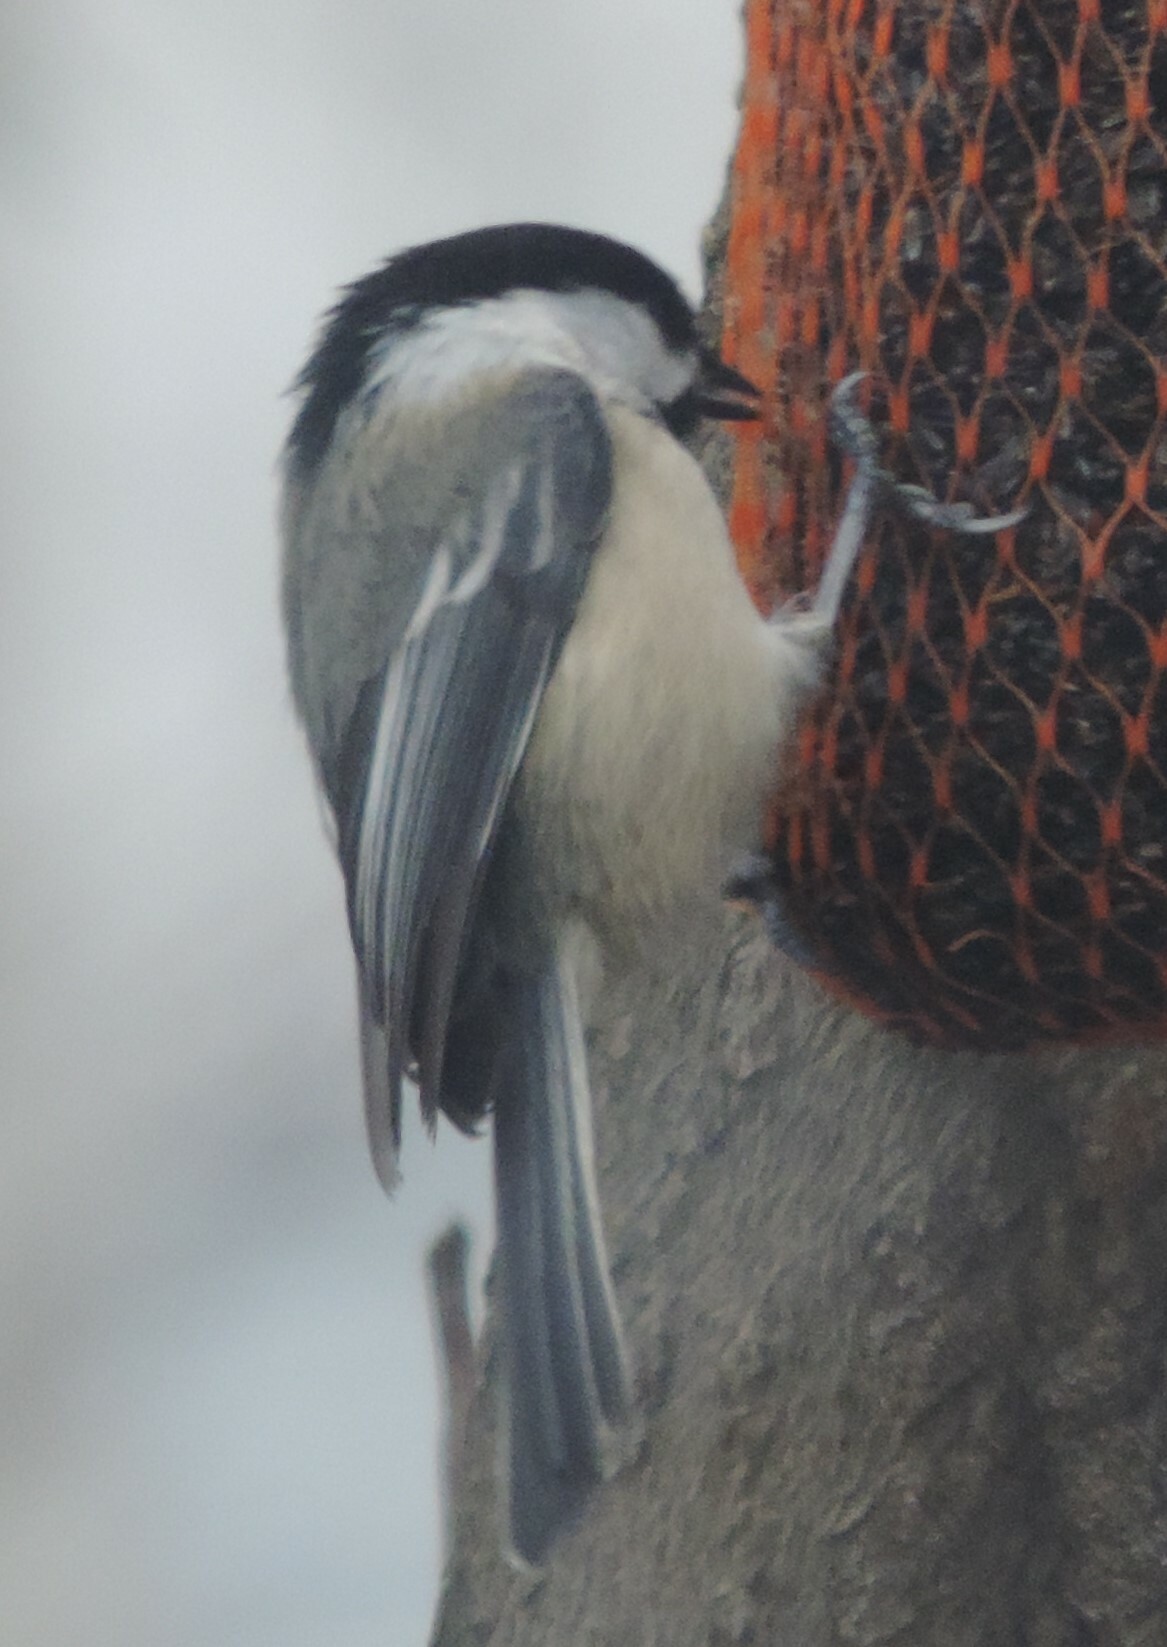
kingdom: Animalia
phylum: Chordata
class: Aves
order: Passeriformes
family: Paridae
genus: Poecile
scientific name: Poecile atricapillus
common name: Black-capped chickadee
